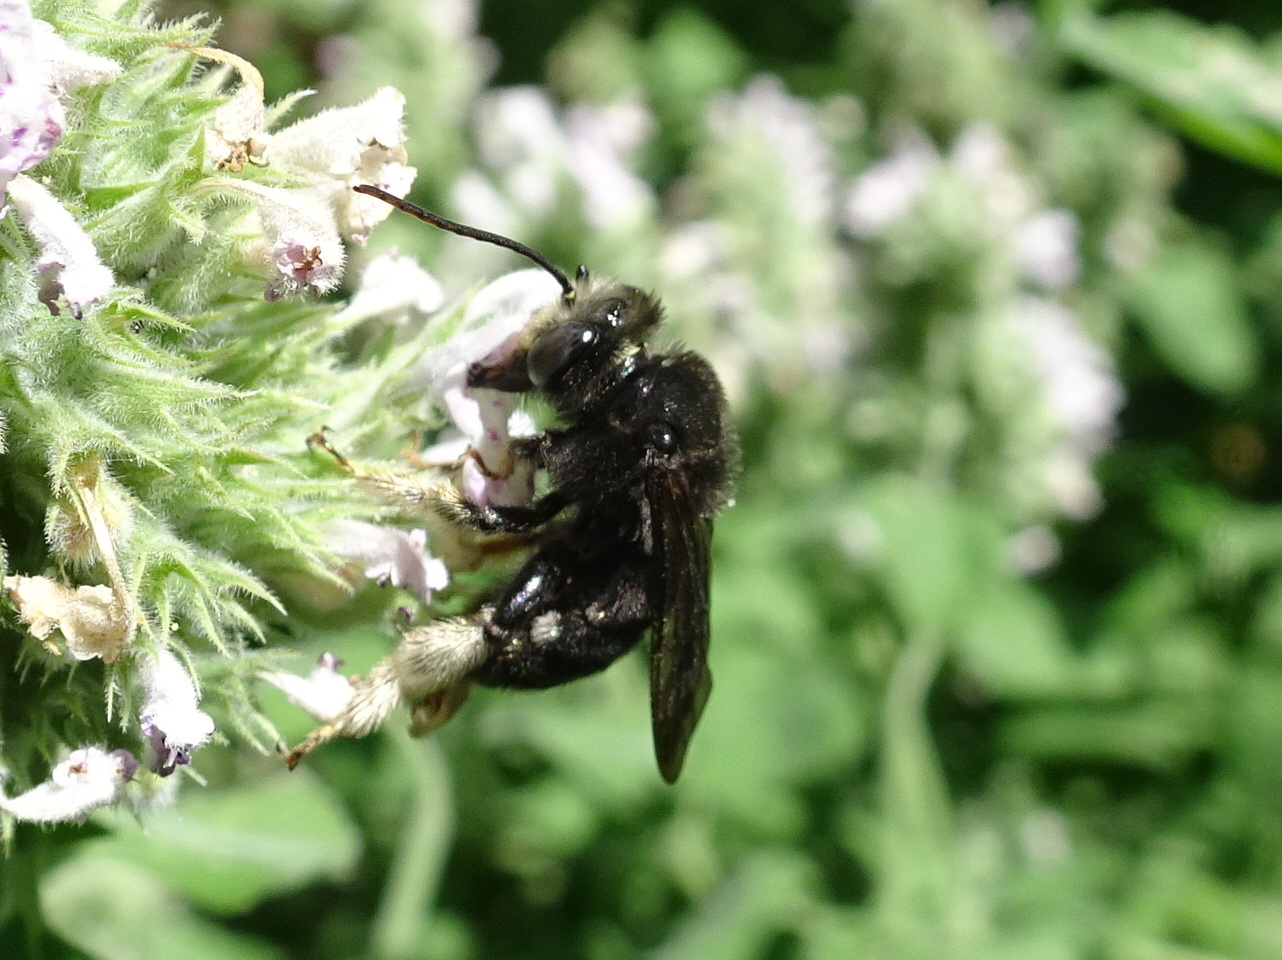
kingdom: Animalia
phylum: Arthropoda
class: Insecta
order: Hymenoptera
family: Apidae
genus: Melissodes
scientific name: Melissodes bimaculatus
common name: Two-spotted long-horned bee
